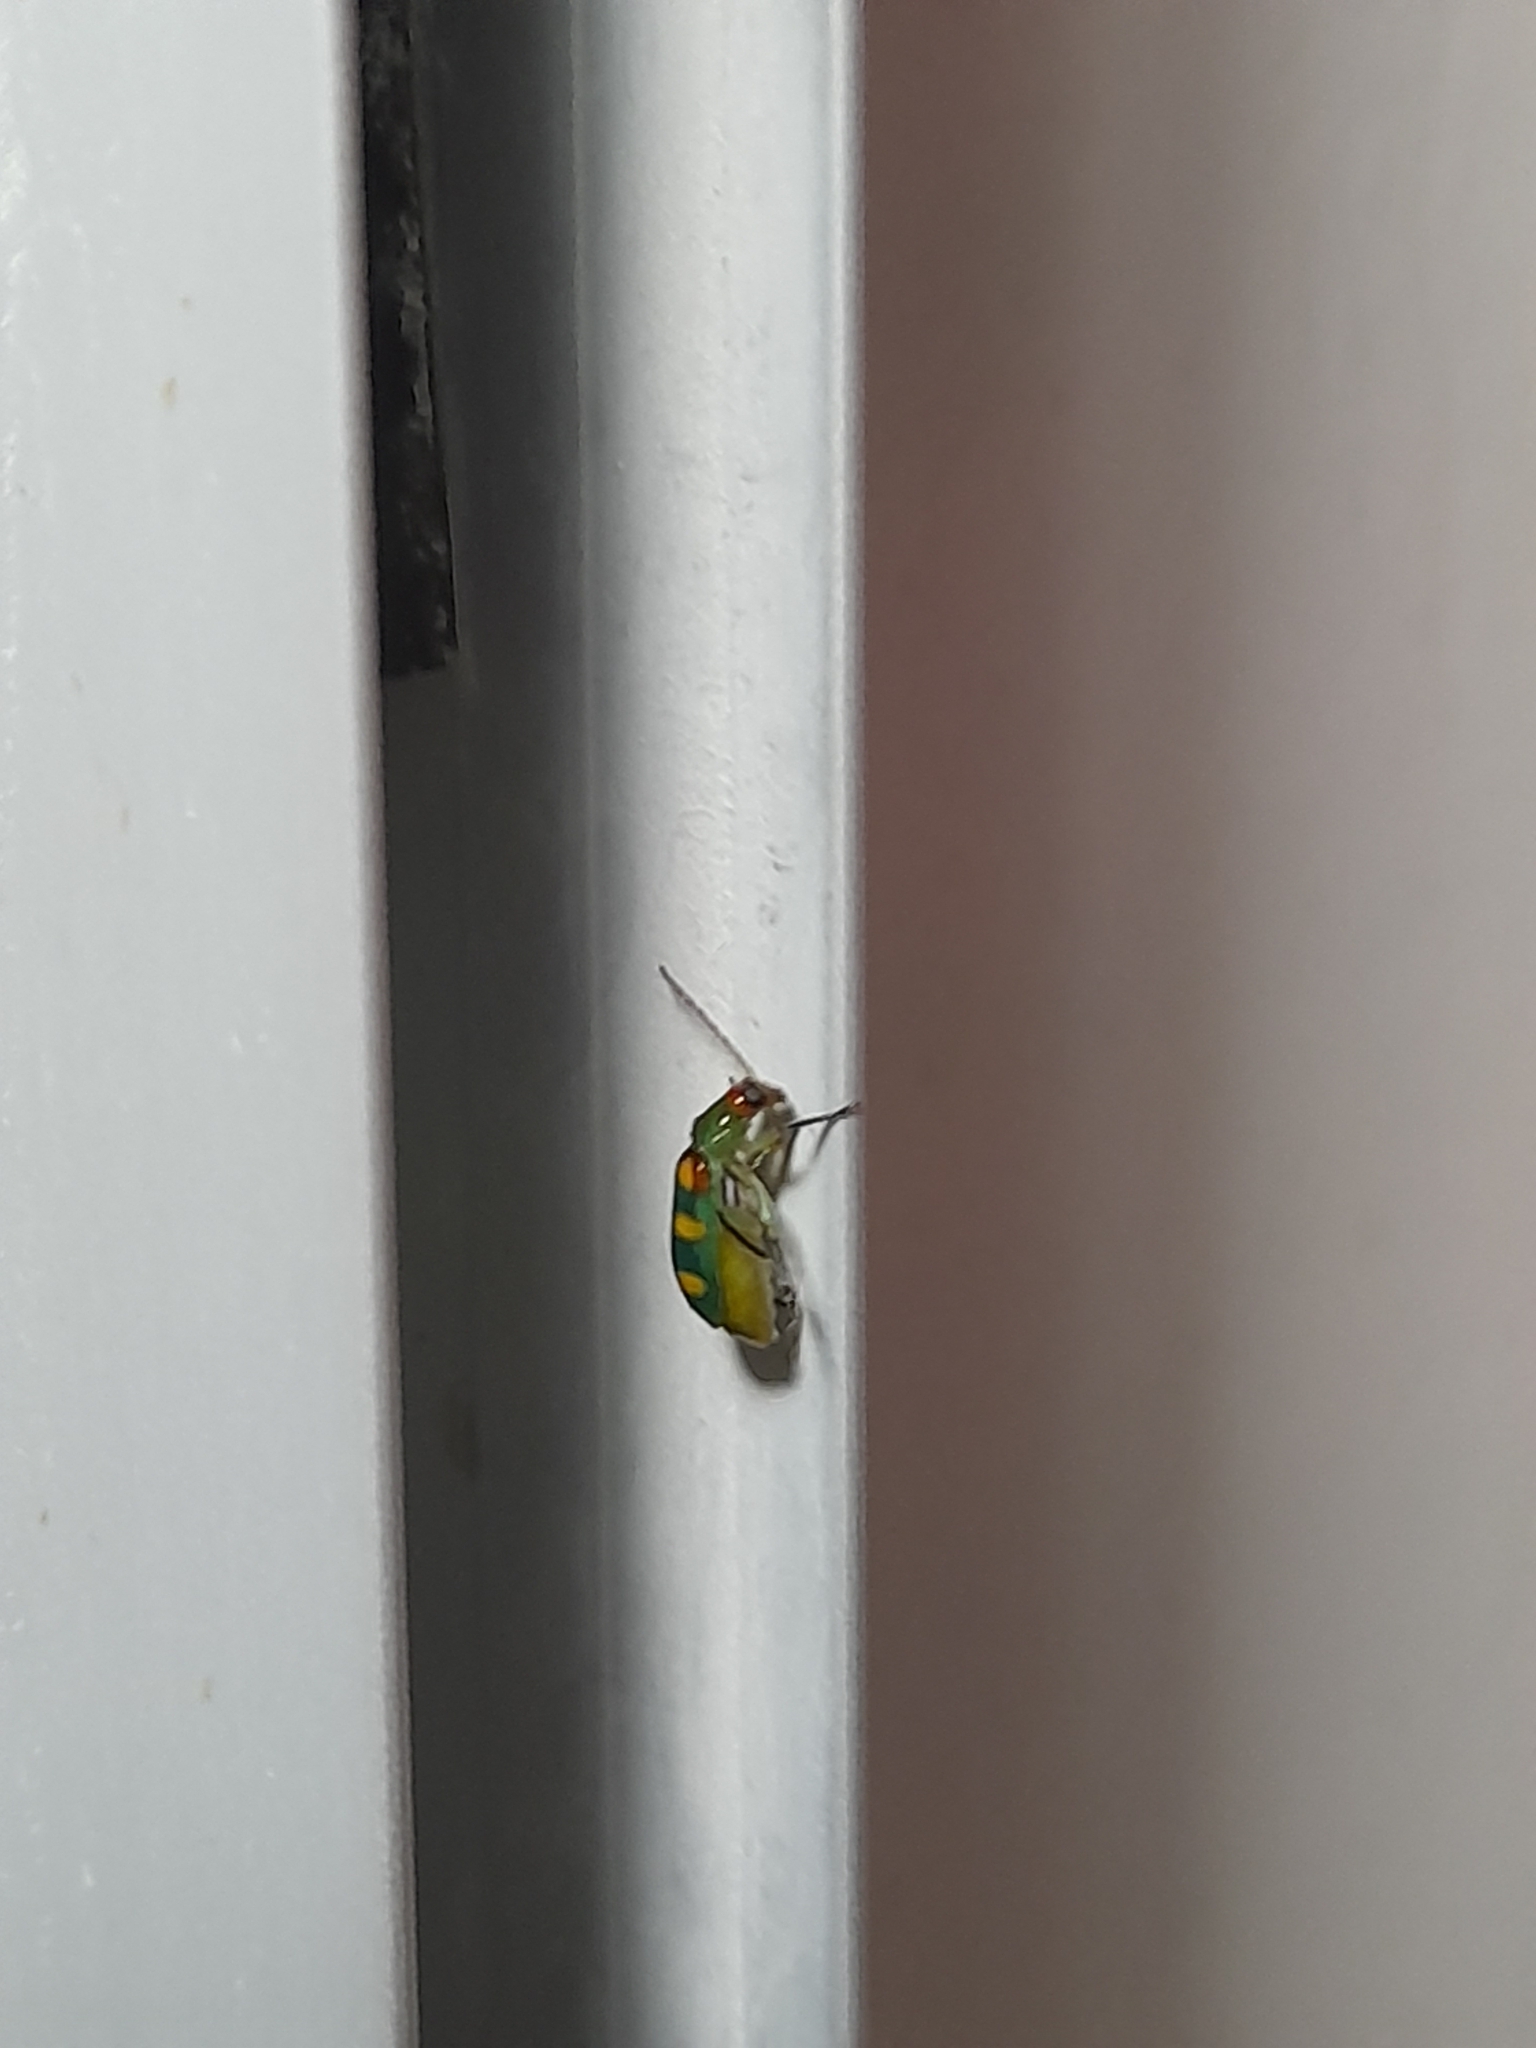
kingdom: Animalia
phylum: Arthropoda
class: Insecta
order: Coleoptera
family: Chrysomelidae
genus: Diabrotica
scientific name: Diabrotica speciosa
